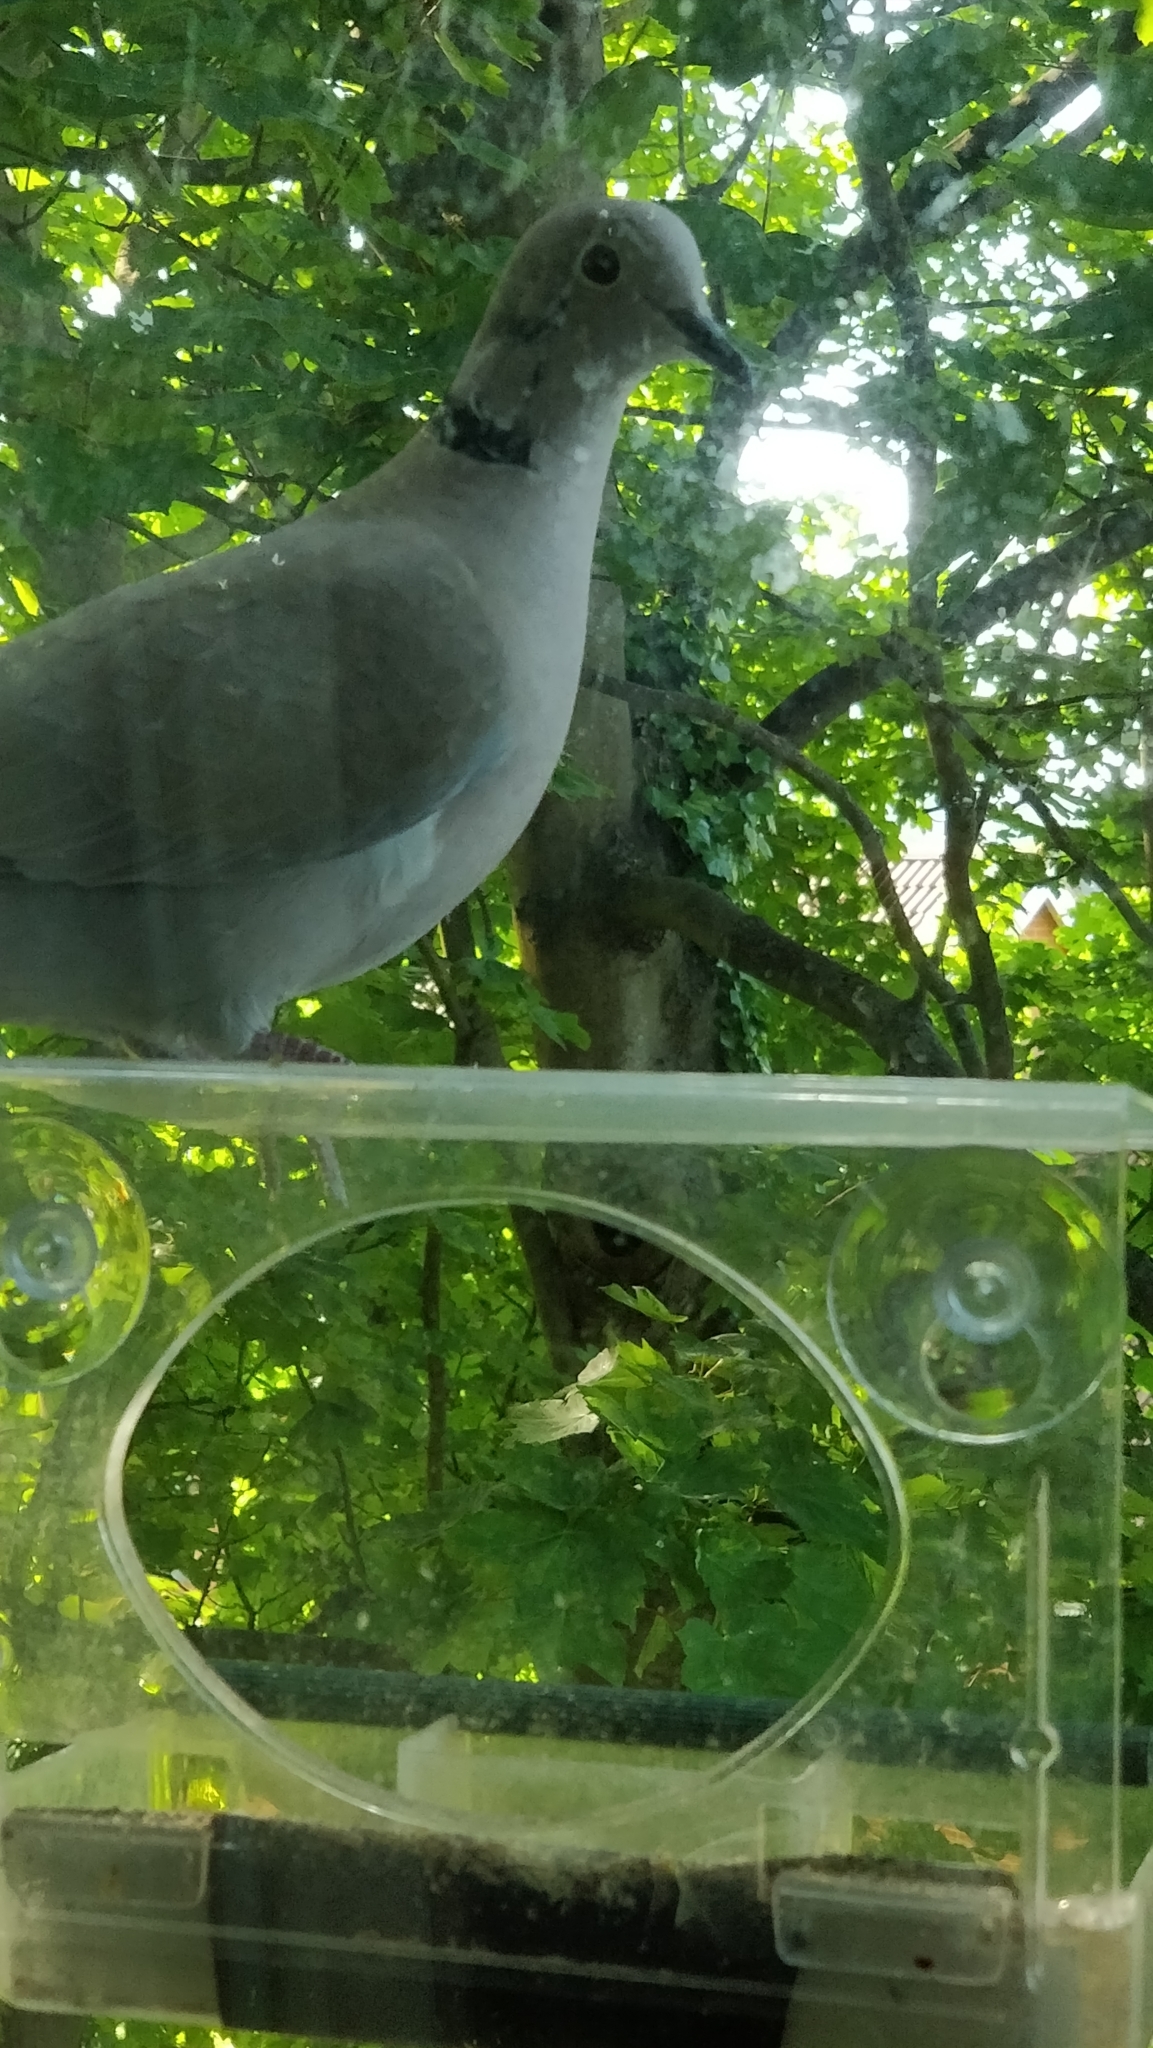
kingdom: Animalia
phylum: Chordata
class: Aves
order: Columbiformes
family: Columbidae
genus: Streptopelia
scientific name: Streptopelia decaocto
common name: Eurasian collared dove
